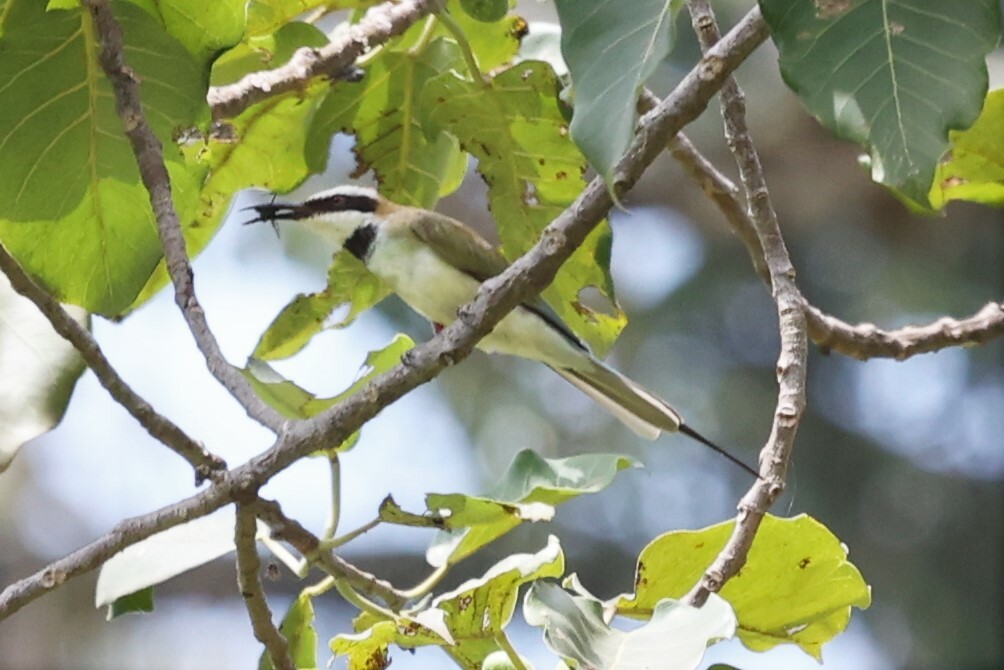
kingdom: Animalia
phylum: Chordata
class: Aves
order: Coraciiformes
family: Meropidae
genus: Merops
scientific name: Merops albicollis
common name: White-throated bee-eater
